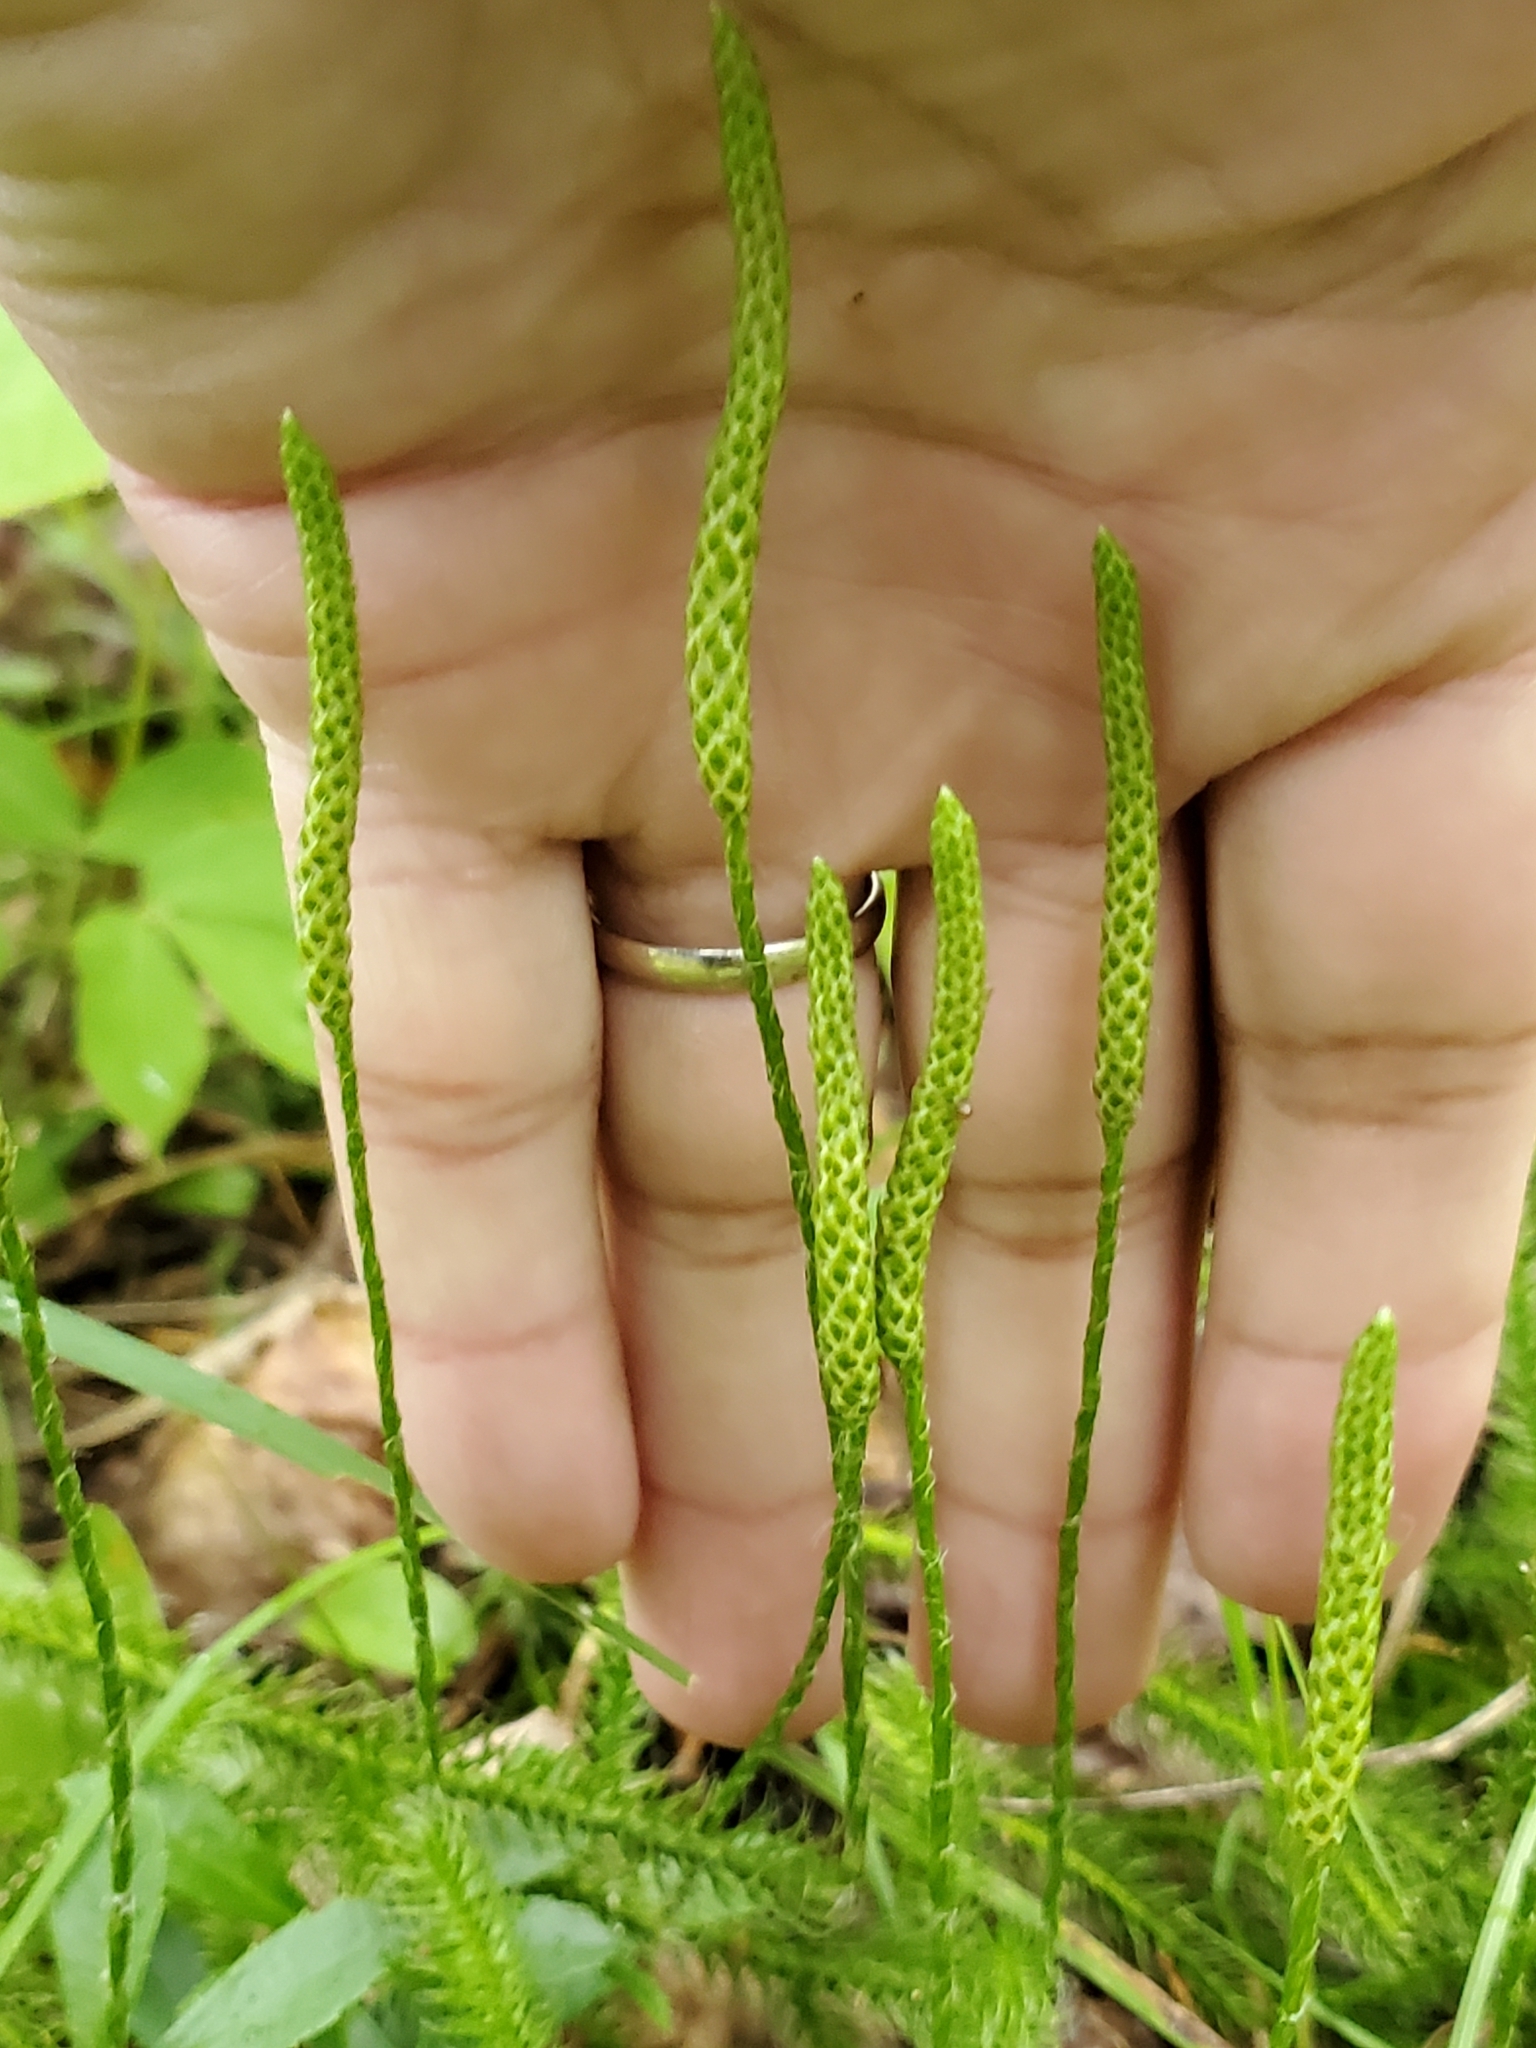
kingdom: Plantae
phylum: Tracheophyta
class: Lycopodiopsida
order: Lycopodiales
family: Lycopodiaceae
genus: Lycopodium
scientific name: Lycopodium lagopus
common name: One-cone clubmoss
